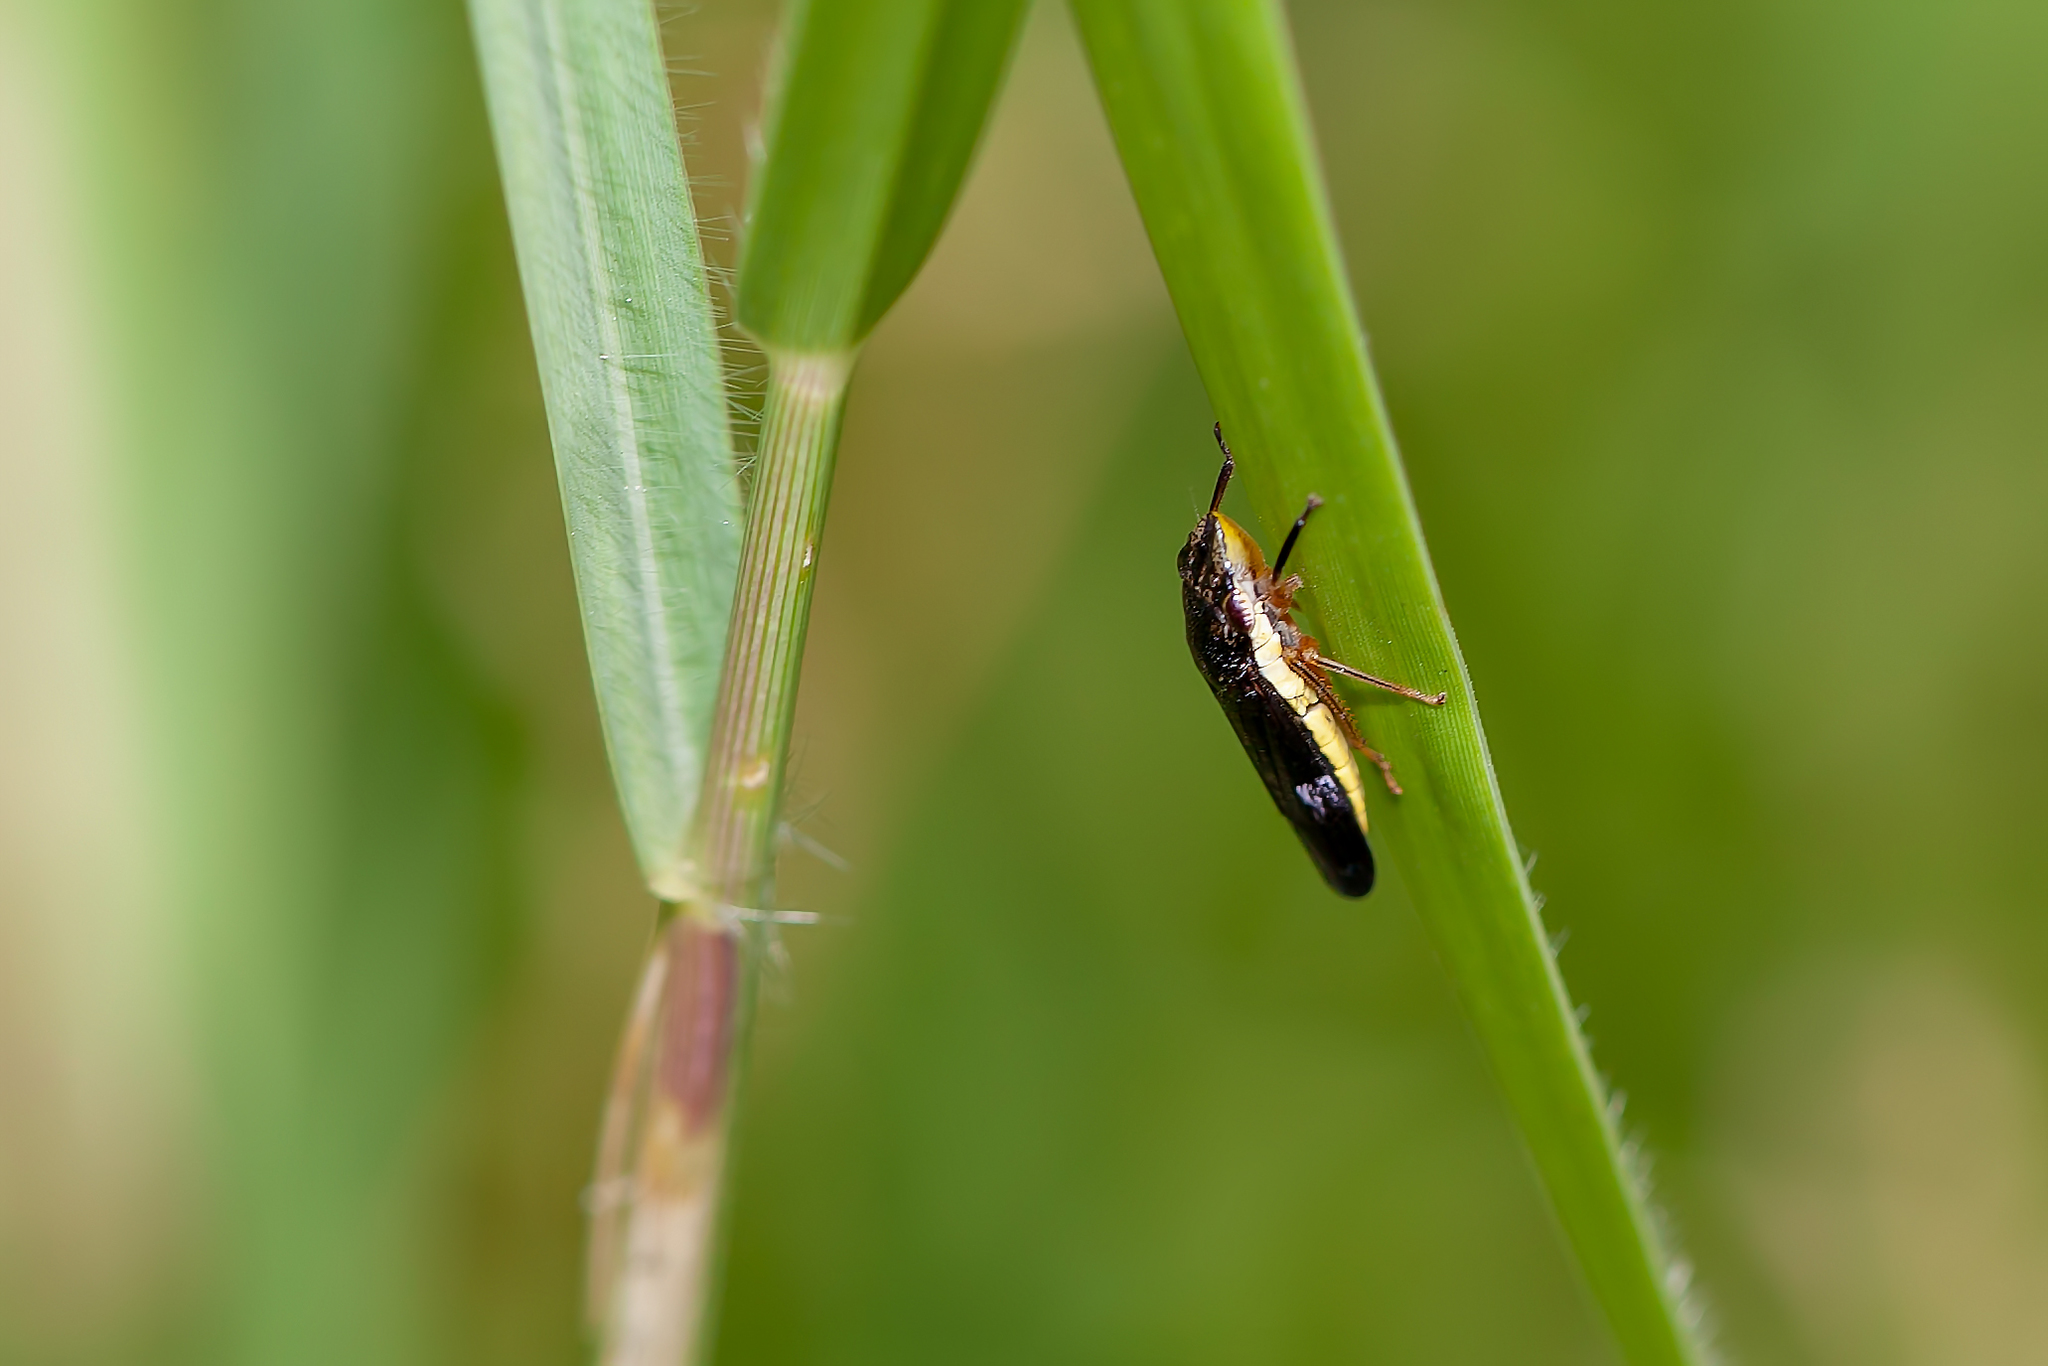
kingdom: Animalia
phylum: Arthropoda
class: Insecta
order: Hemiptera
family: Cicadellidae
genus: Homalodisca
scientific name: Homalodisca insolita
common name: Johnson grass sharpshooter
